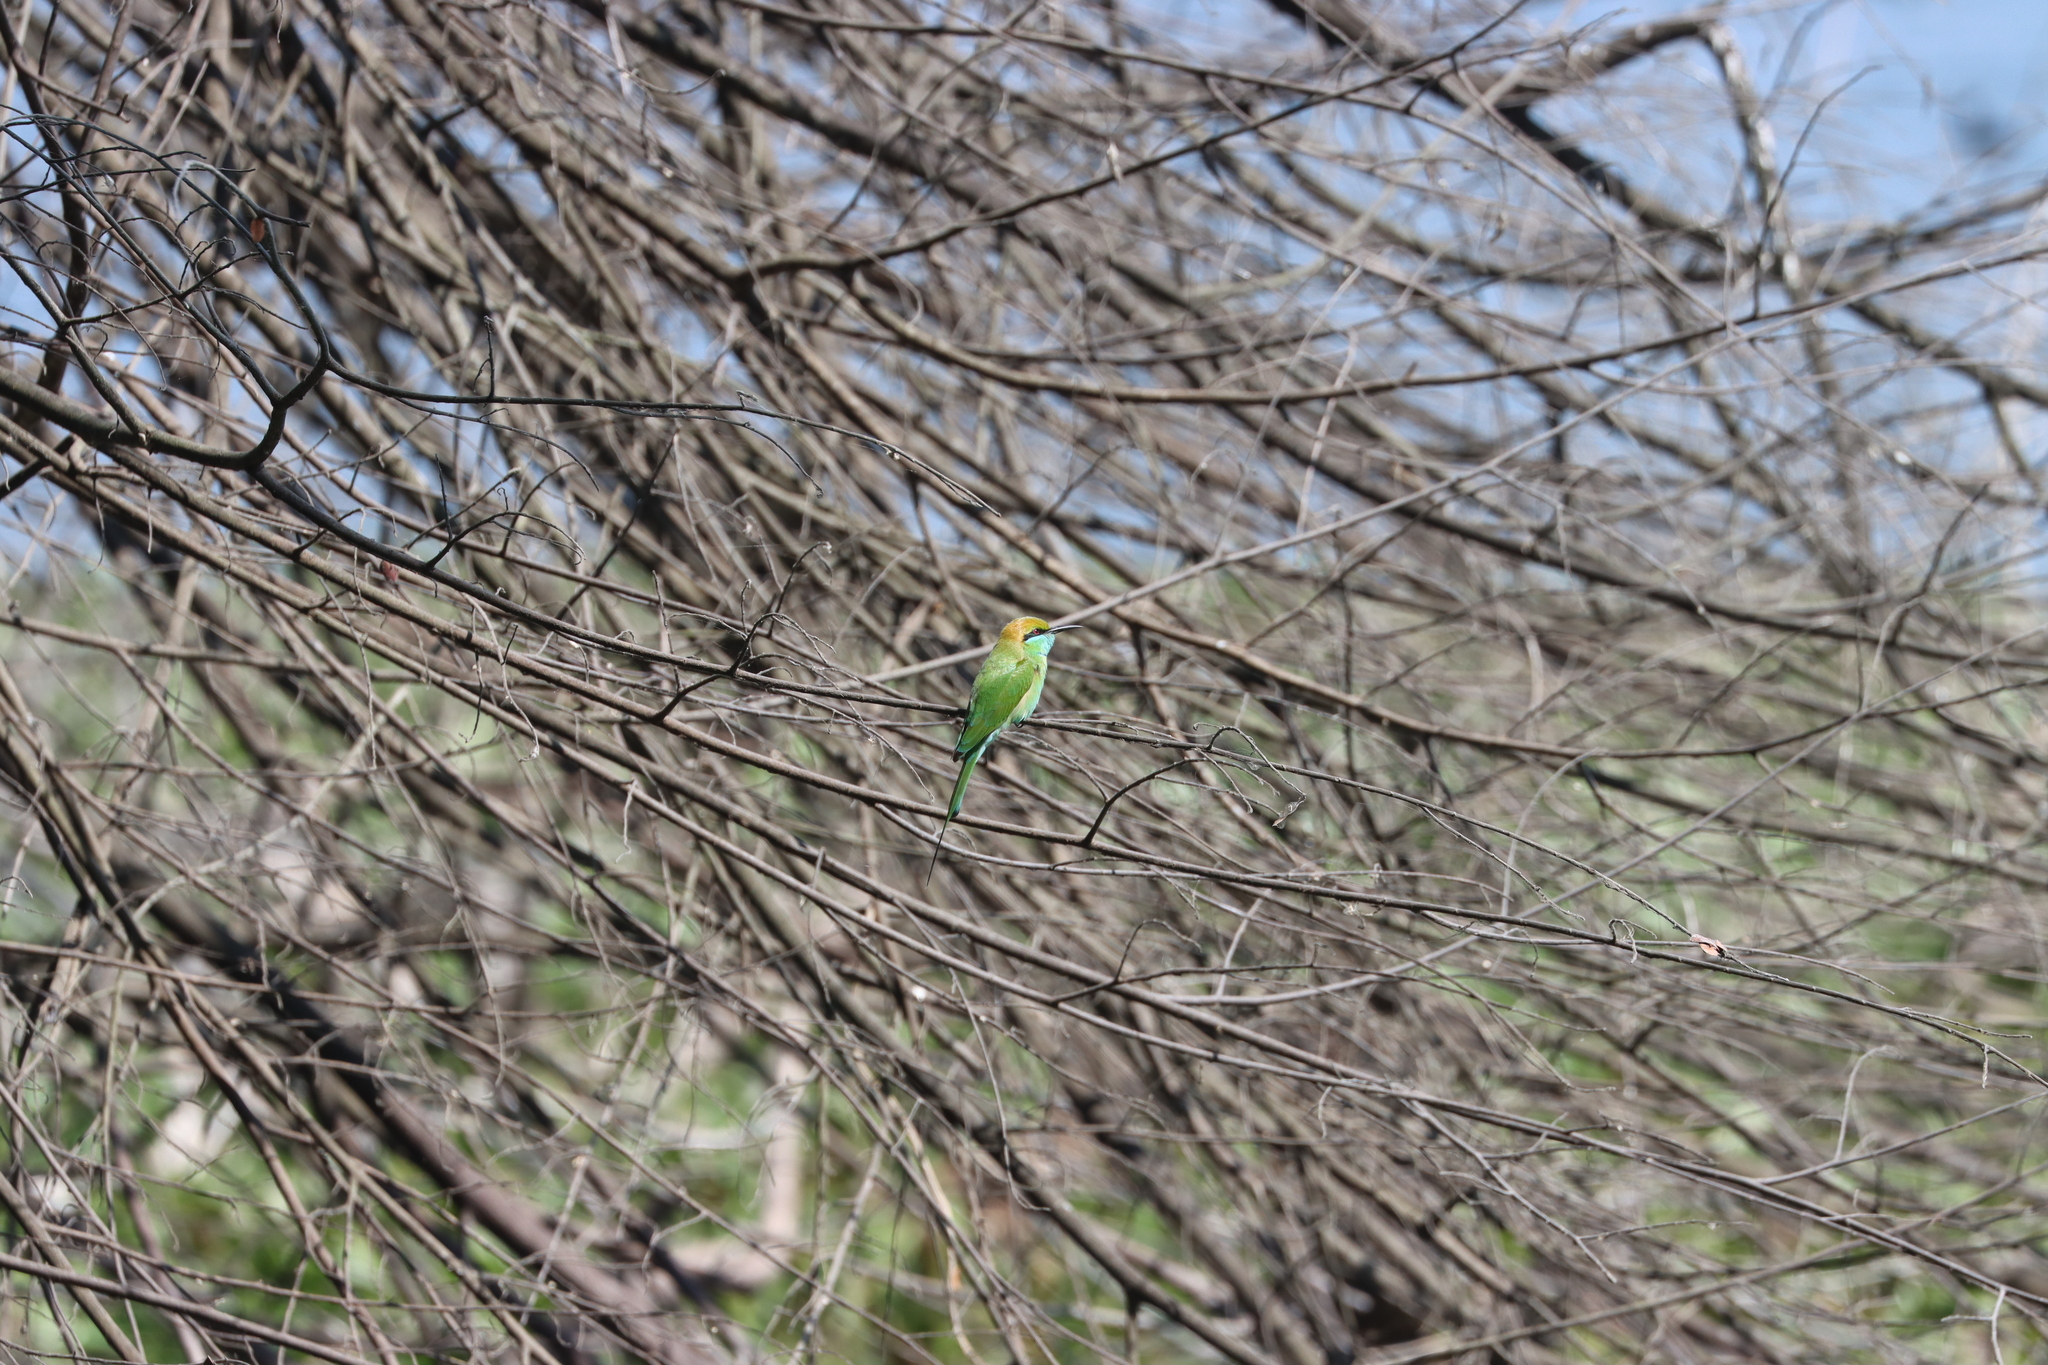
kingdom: Animalia
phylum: Chordata
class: Aves
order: Coraciiformes
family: Meropidae
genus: Merops
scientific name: Merops orientalis
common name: Green bee-eater
